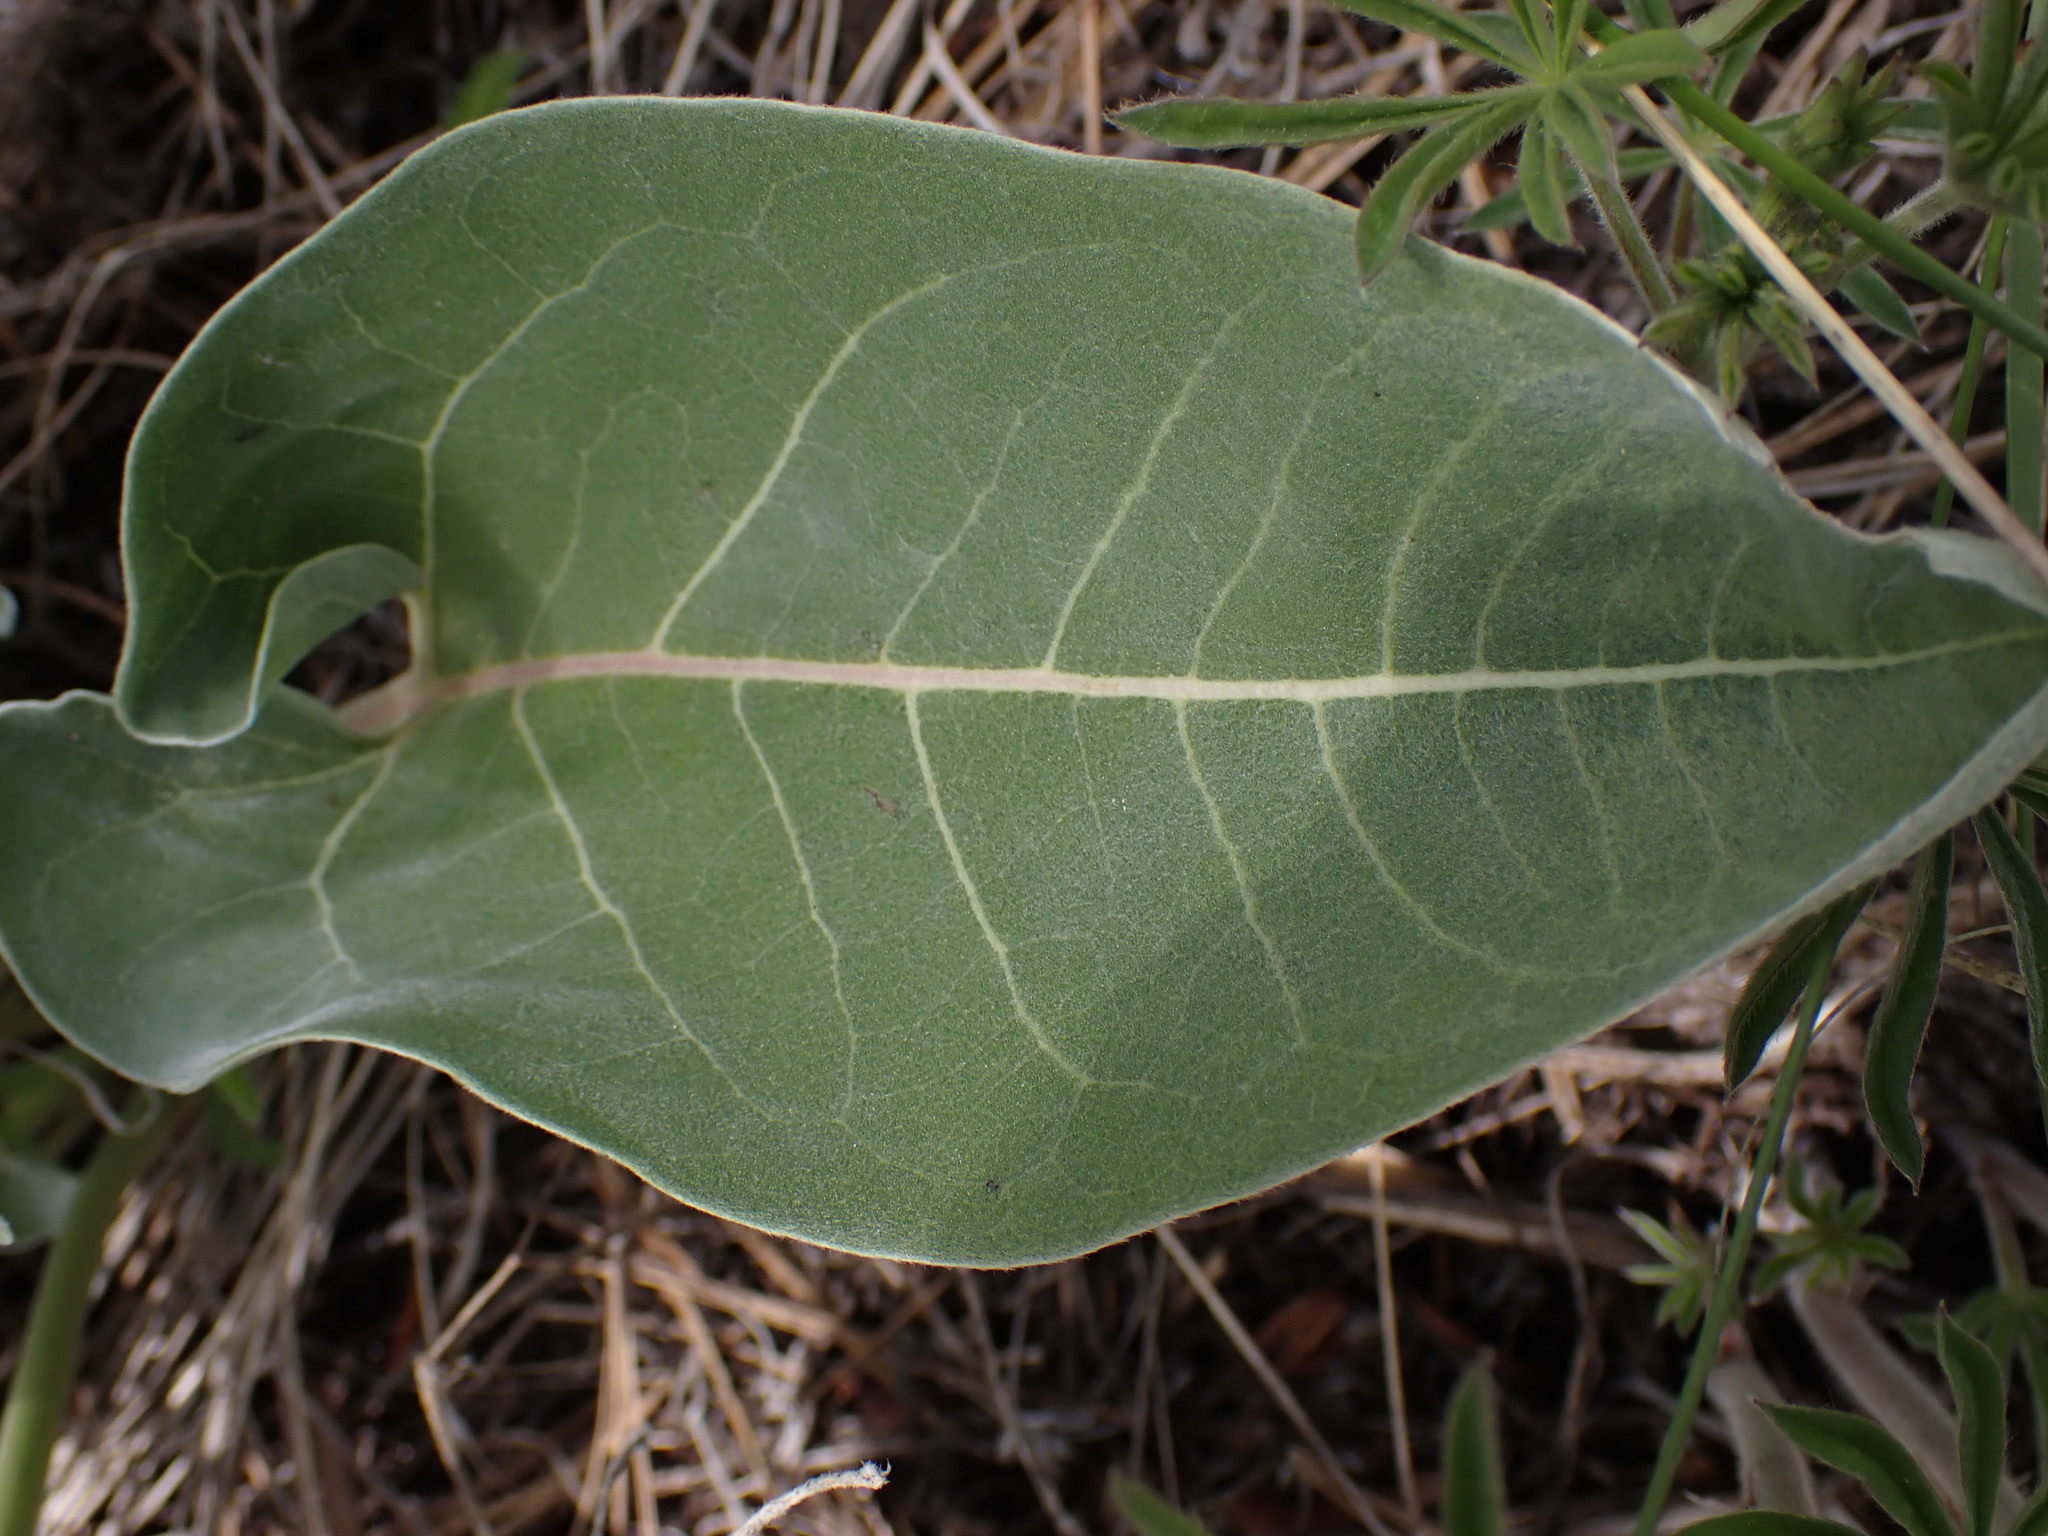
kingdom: Plantae
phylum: Tracheophyta
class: Magnoliopsida
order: Asterales
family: Asteraceae
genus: Wyethia
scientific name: Wyethia sagittata
